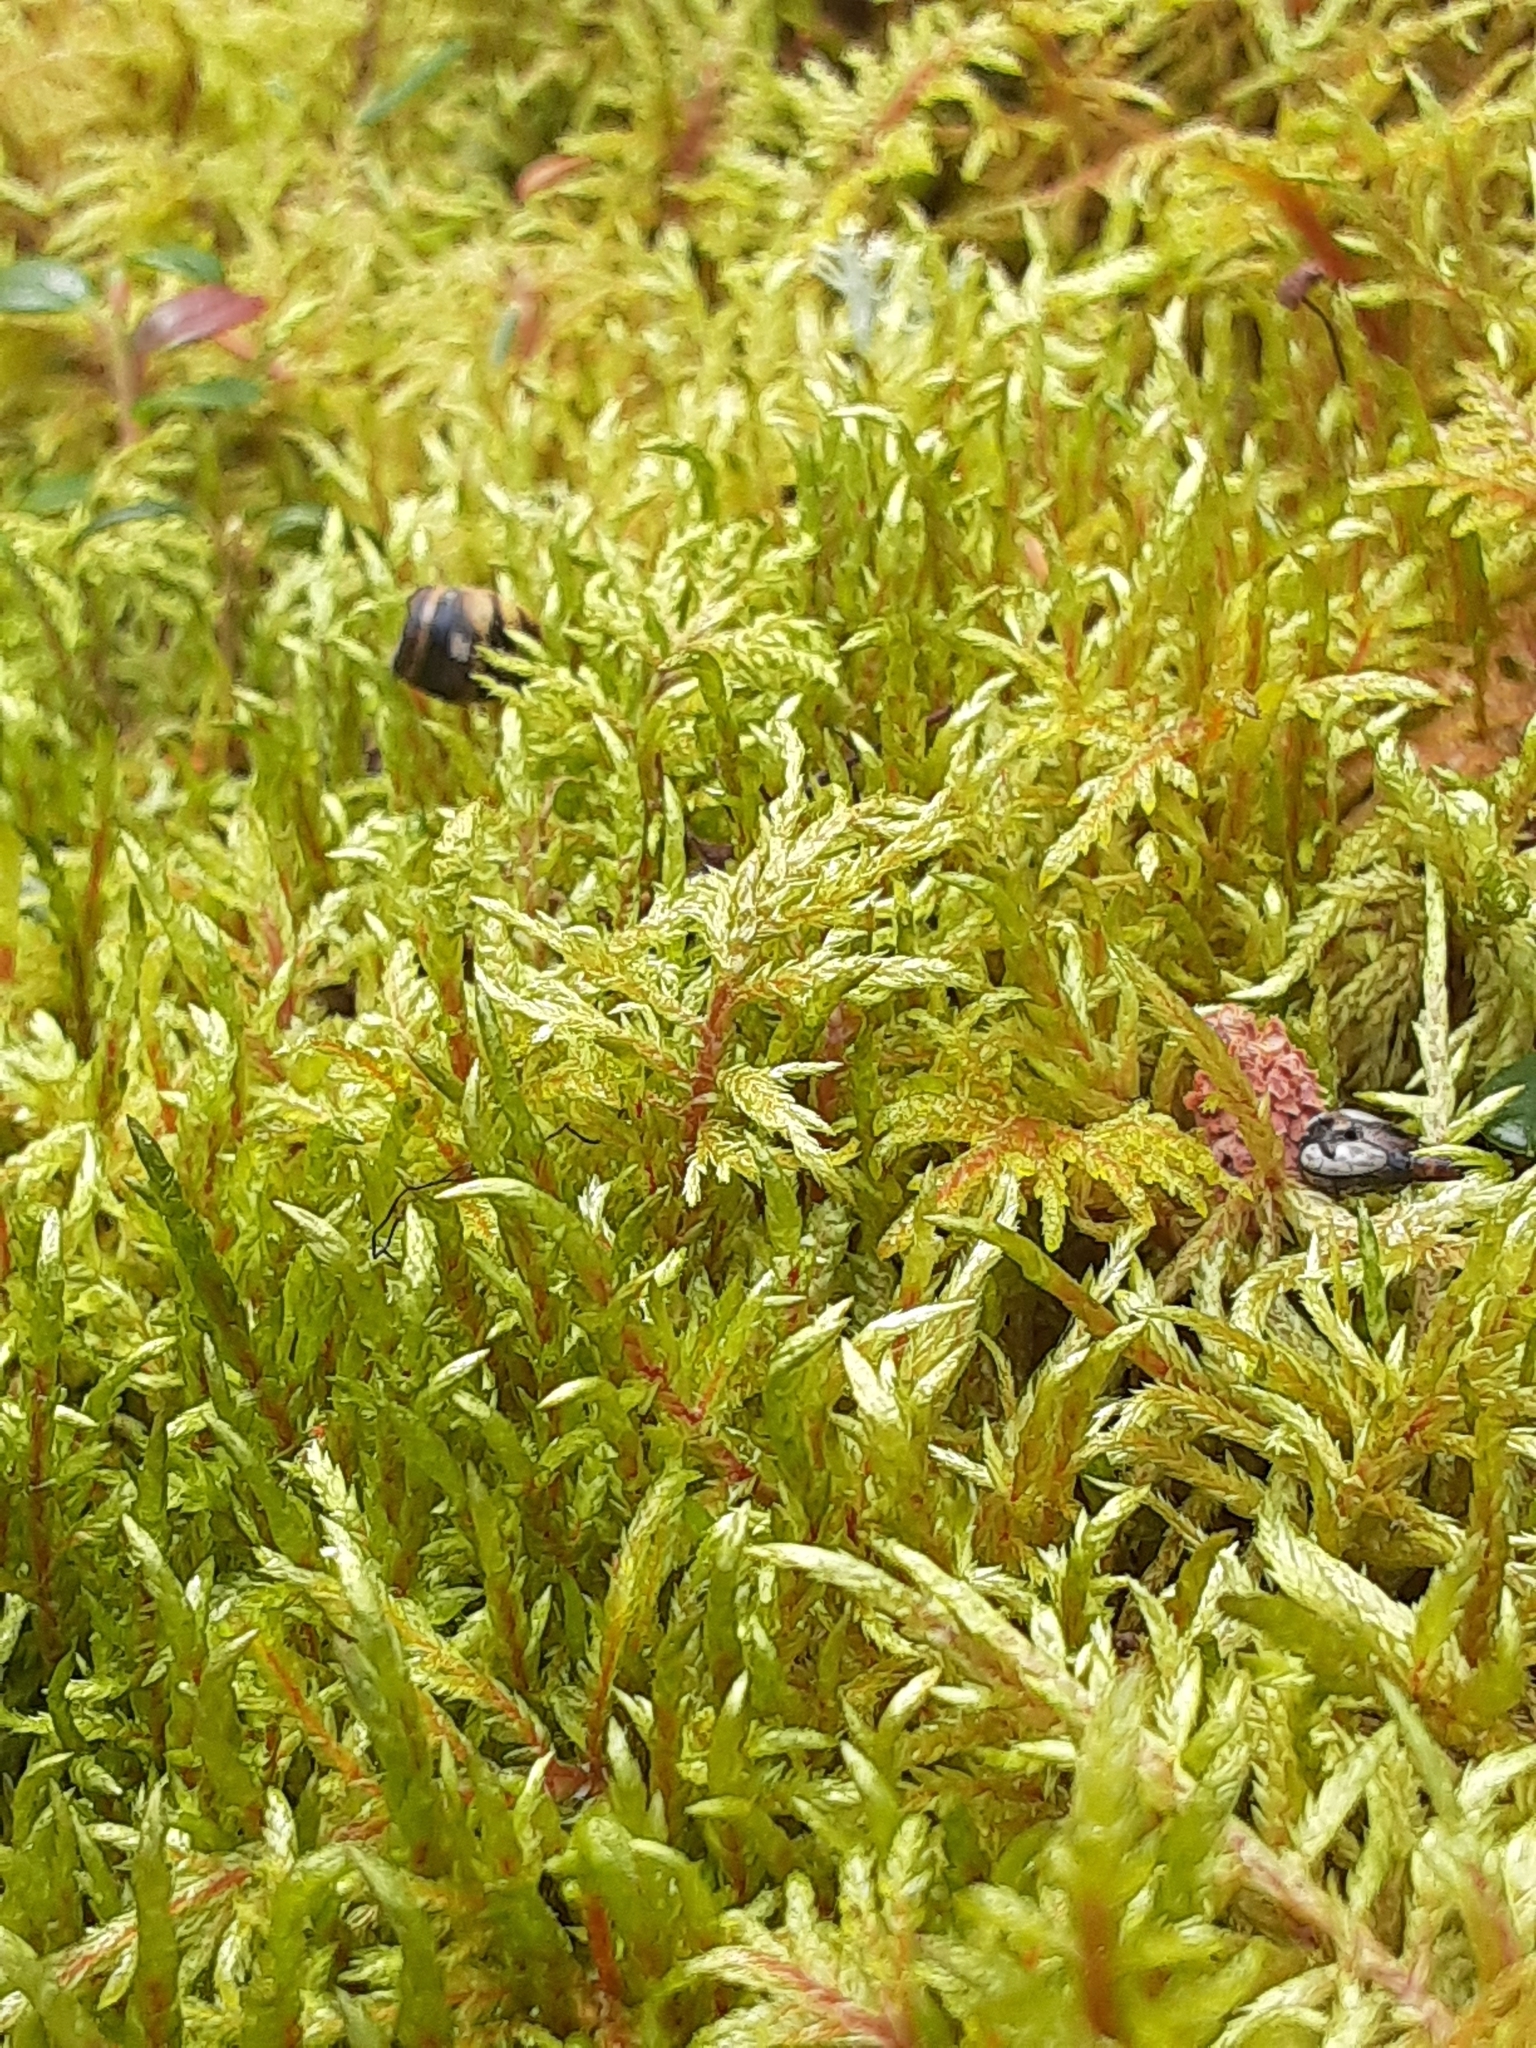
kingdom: Plantae
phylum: Bryophyta
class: Bryopsida
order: Hypnales
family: Hylocomiaceae
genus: Hylocomium
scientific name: Hylocomium splendens
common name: Stairstep moss
